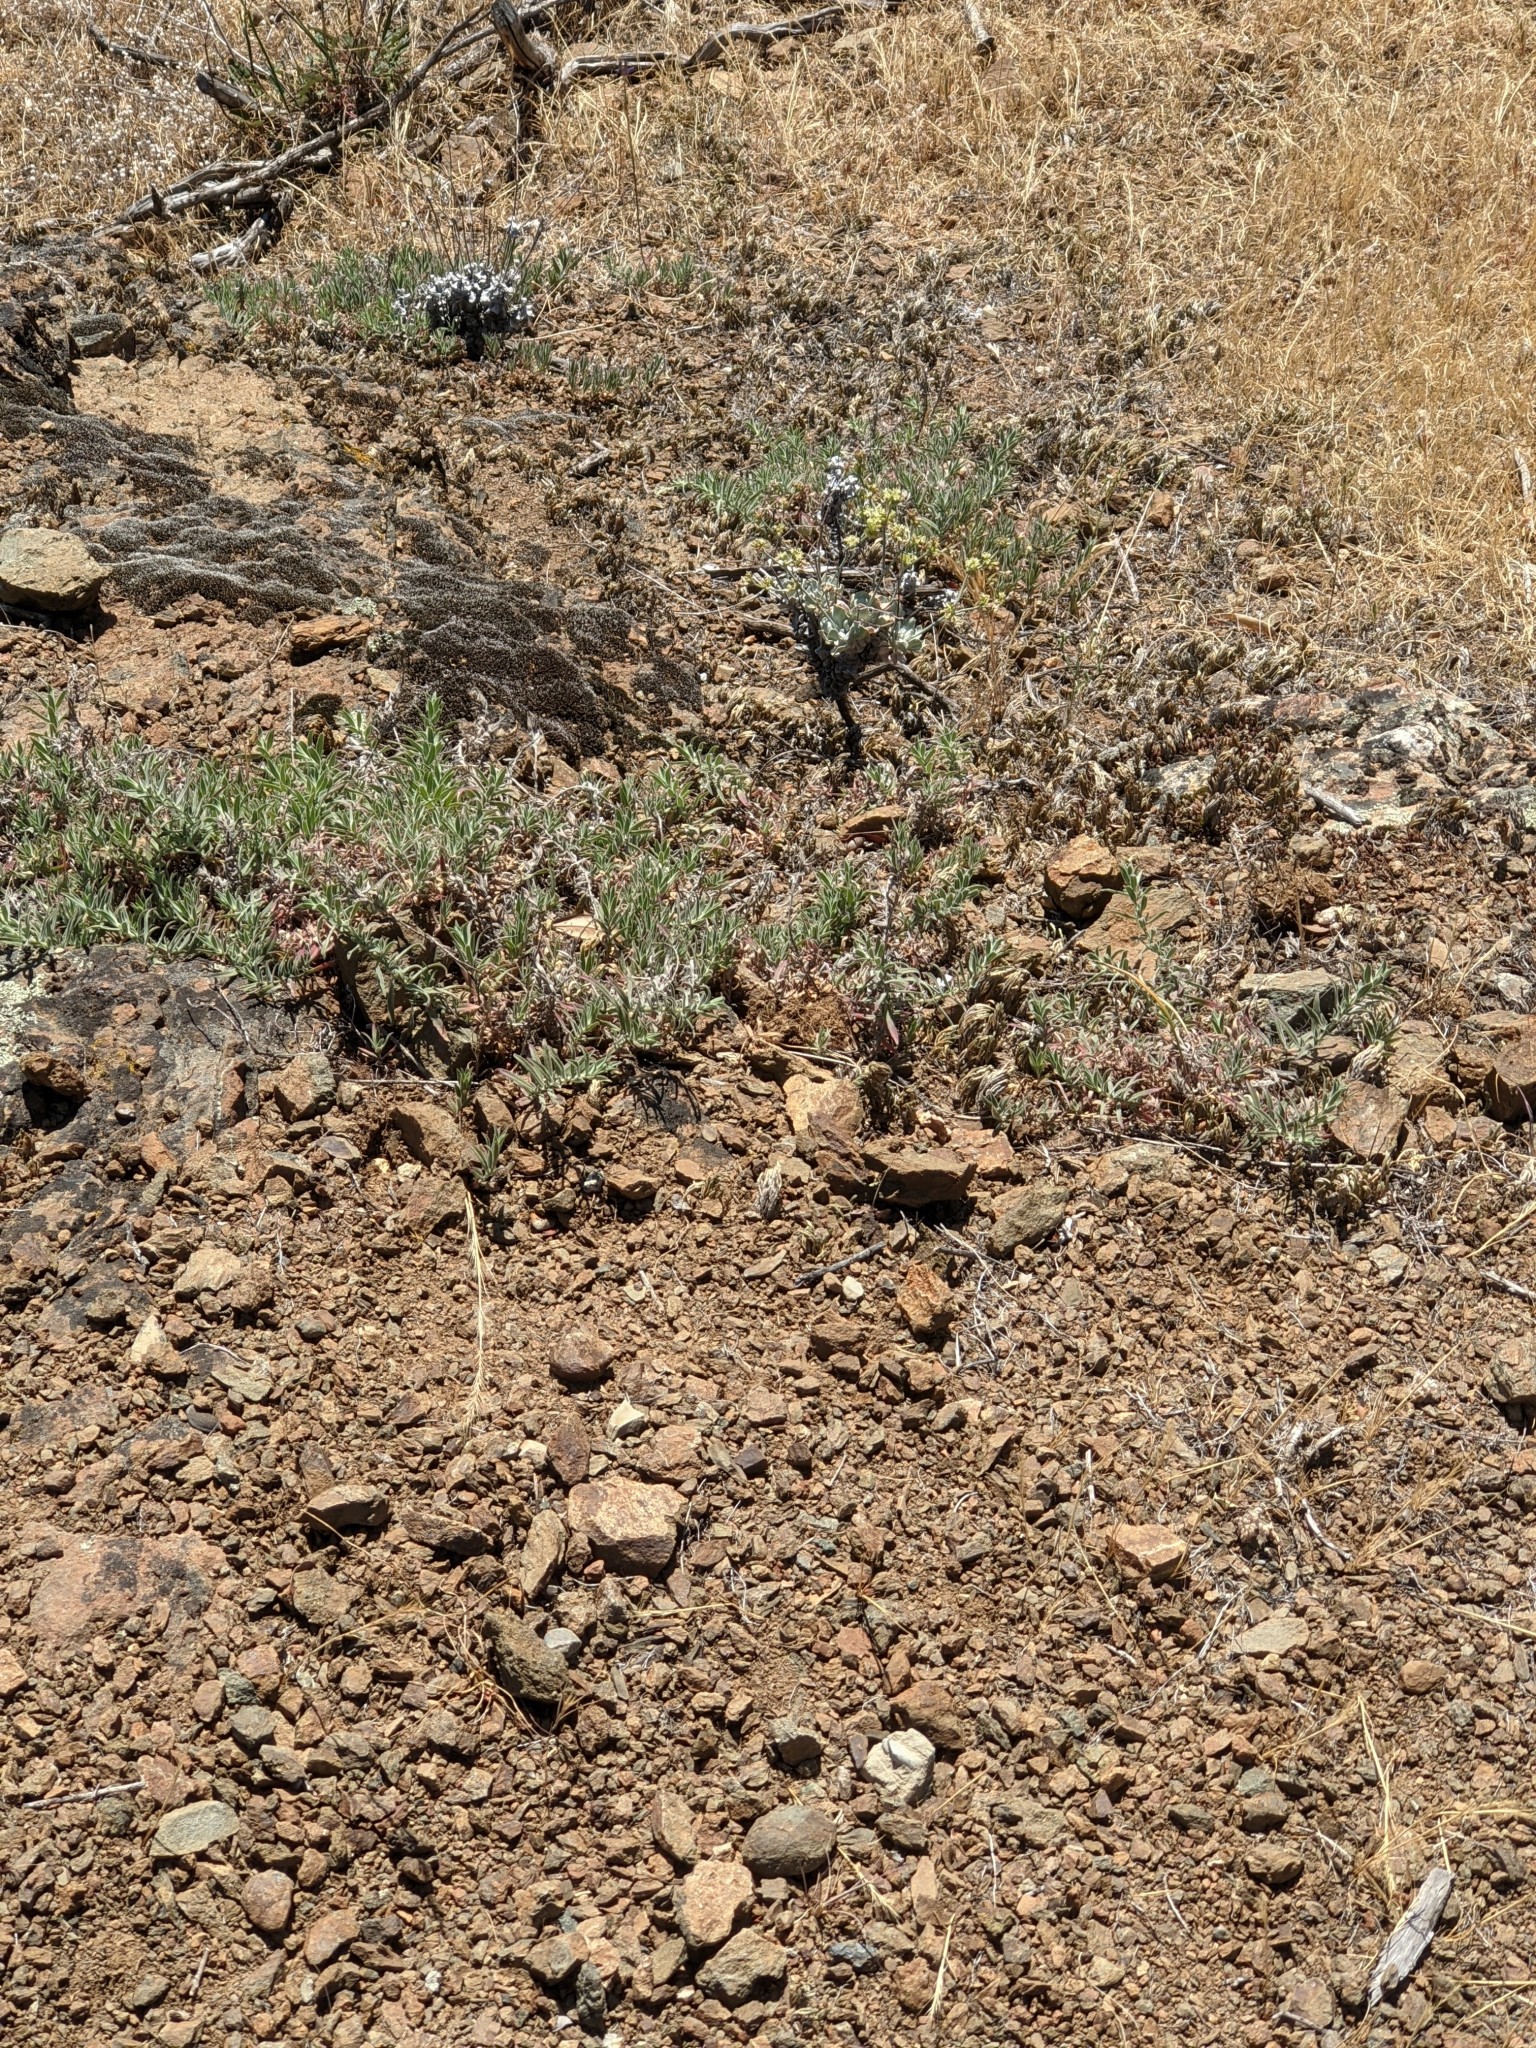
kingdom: Plantae
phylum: Tracheophyta
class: Magnoliopsida
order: Caryophyllales
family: Polygonaceae
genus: Eriogonum
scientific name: Eriogonum saxatile
